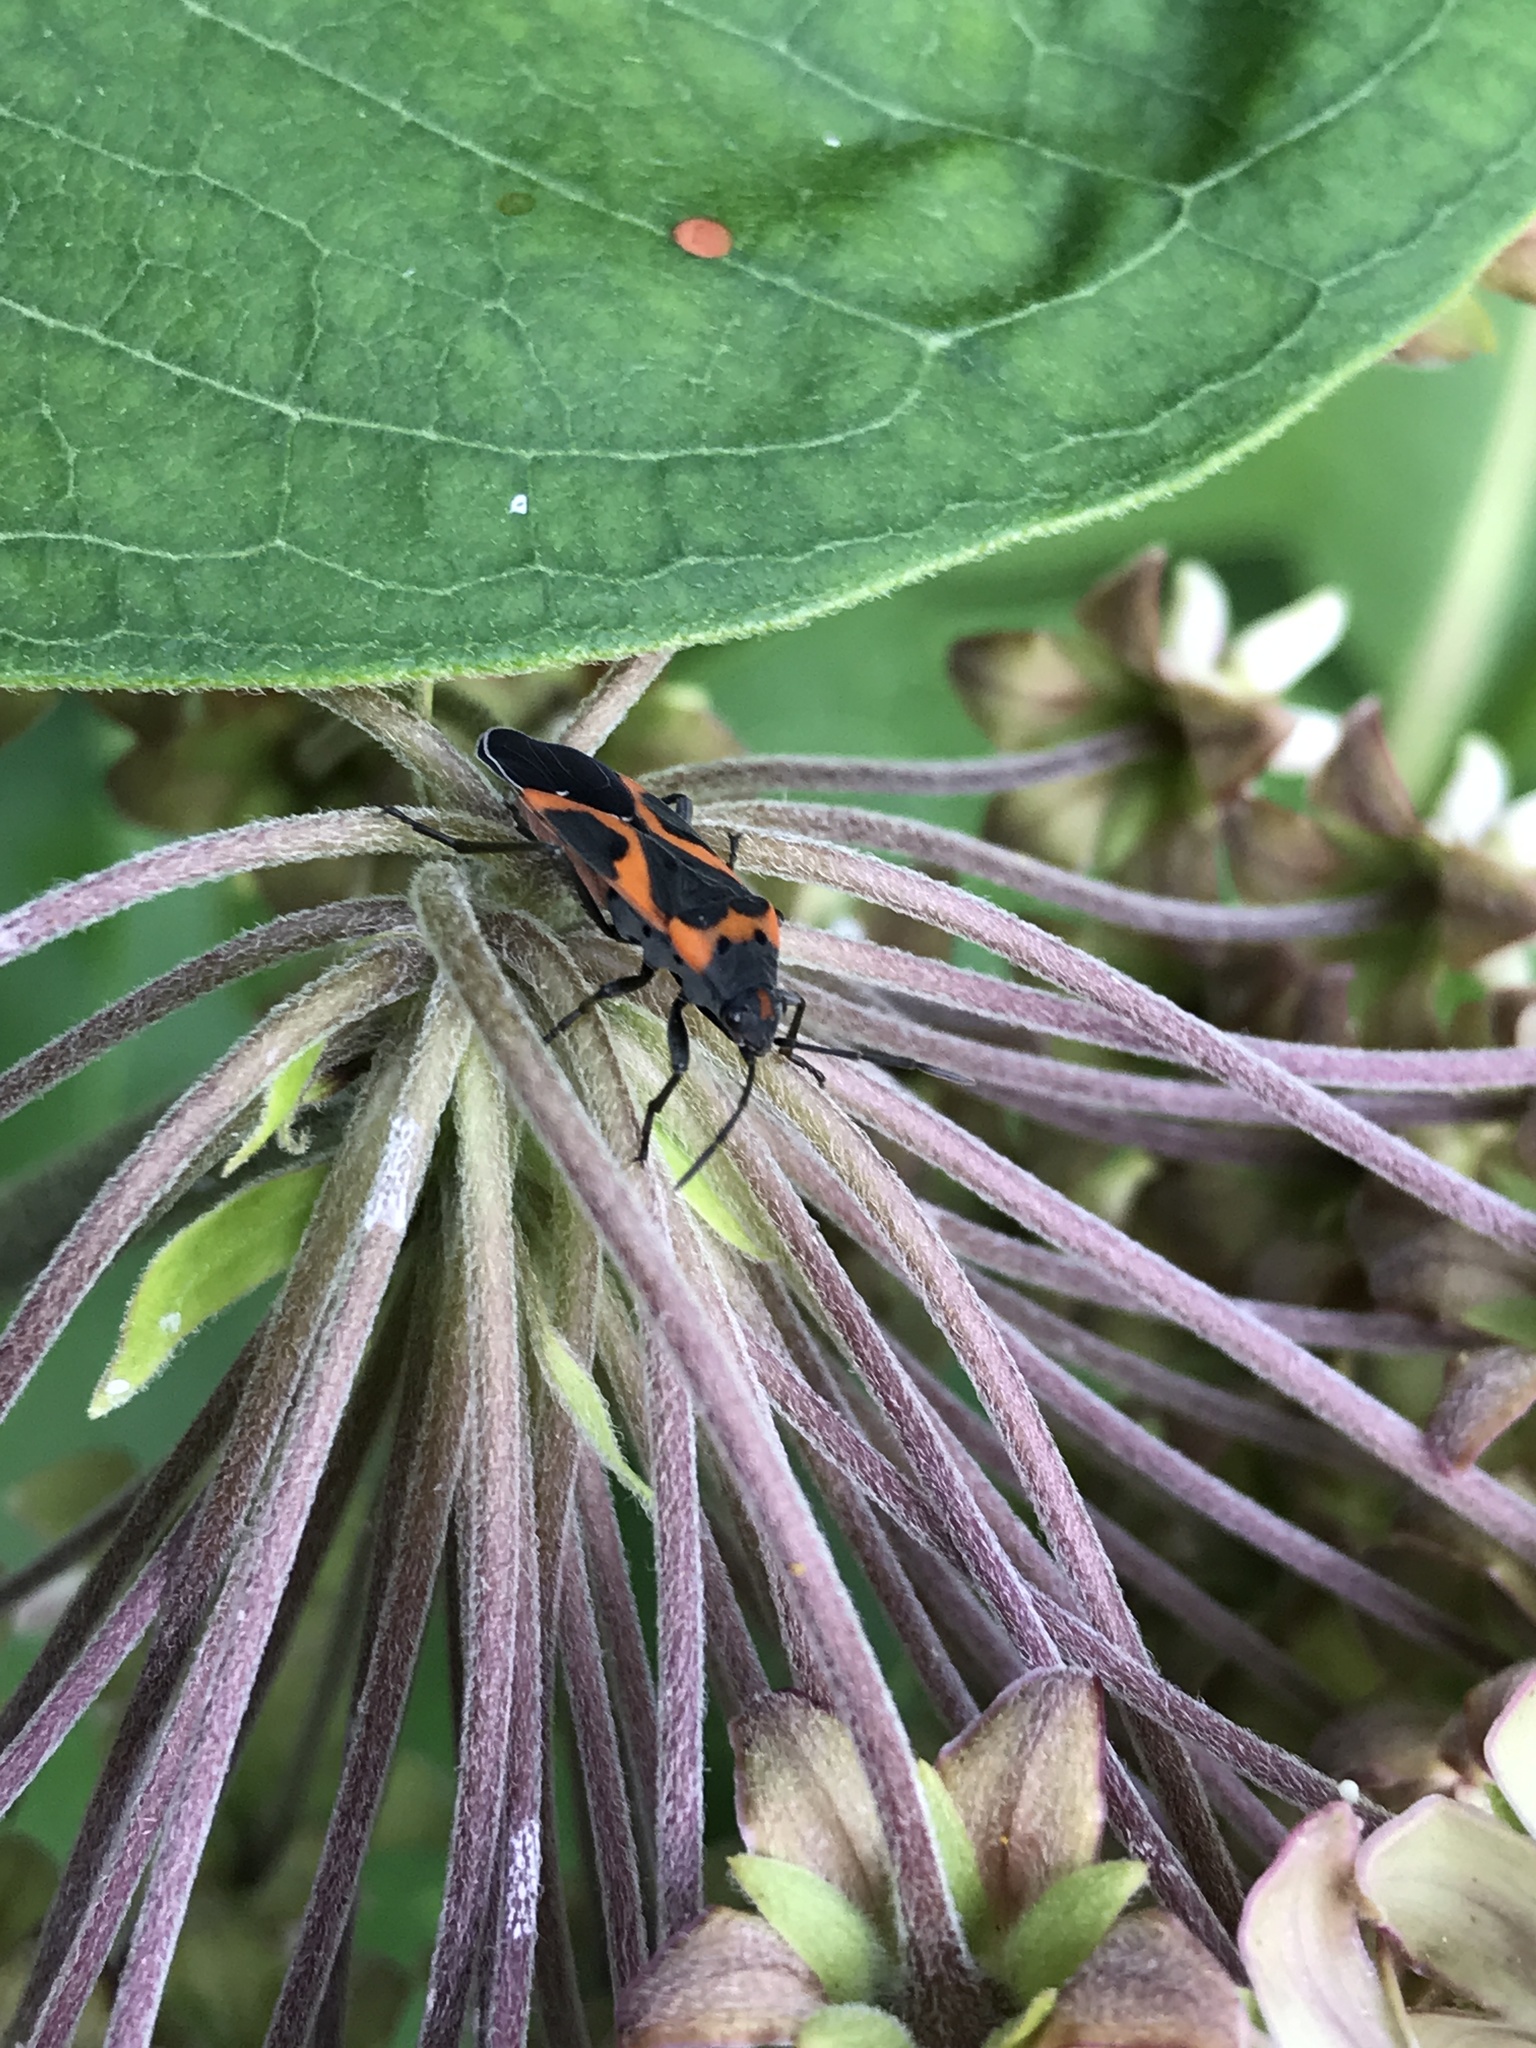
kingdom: Animalia
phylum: Arthropoda
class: Insecta
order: Hemiptera
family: Lygaeidae
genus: Lygaeus
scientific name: Lygaeus kalmii
